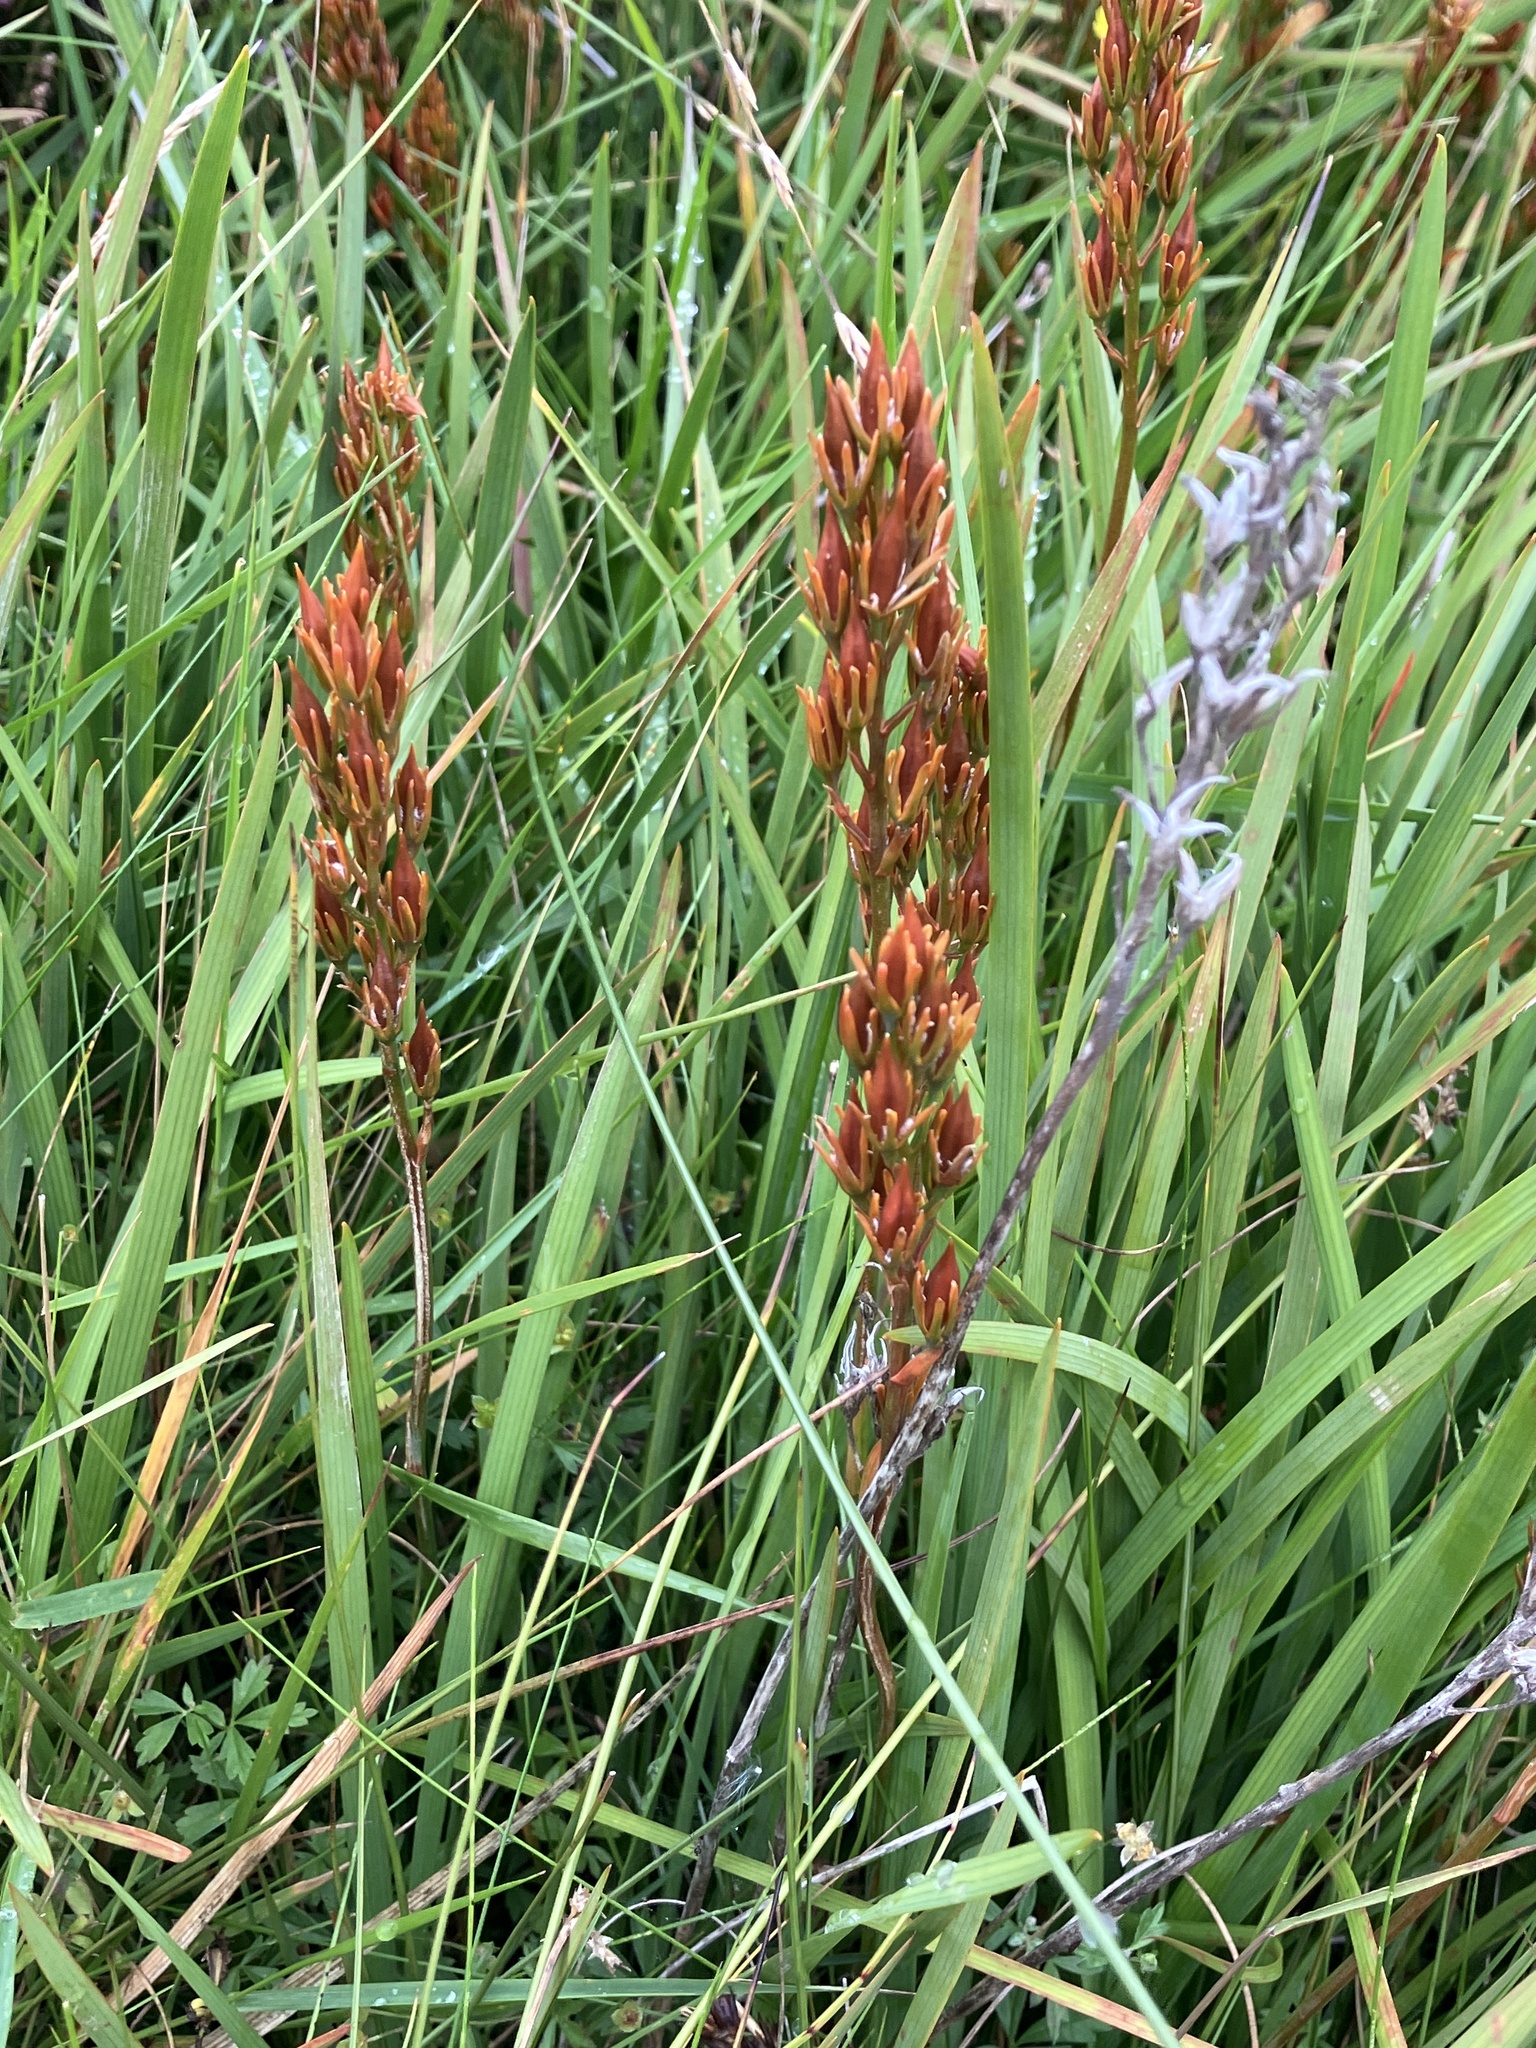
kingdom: Plantae
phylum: Tracheophyta
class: Liliopsida
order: Dioscoreales
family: Nartheciaceae
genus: Narthecium
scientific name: Narthecium ossifragum
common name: Bog asphodel
